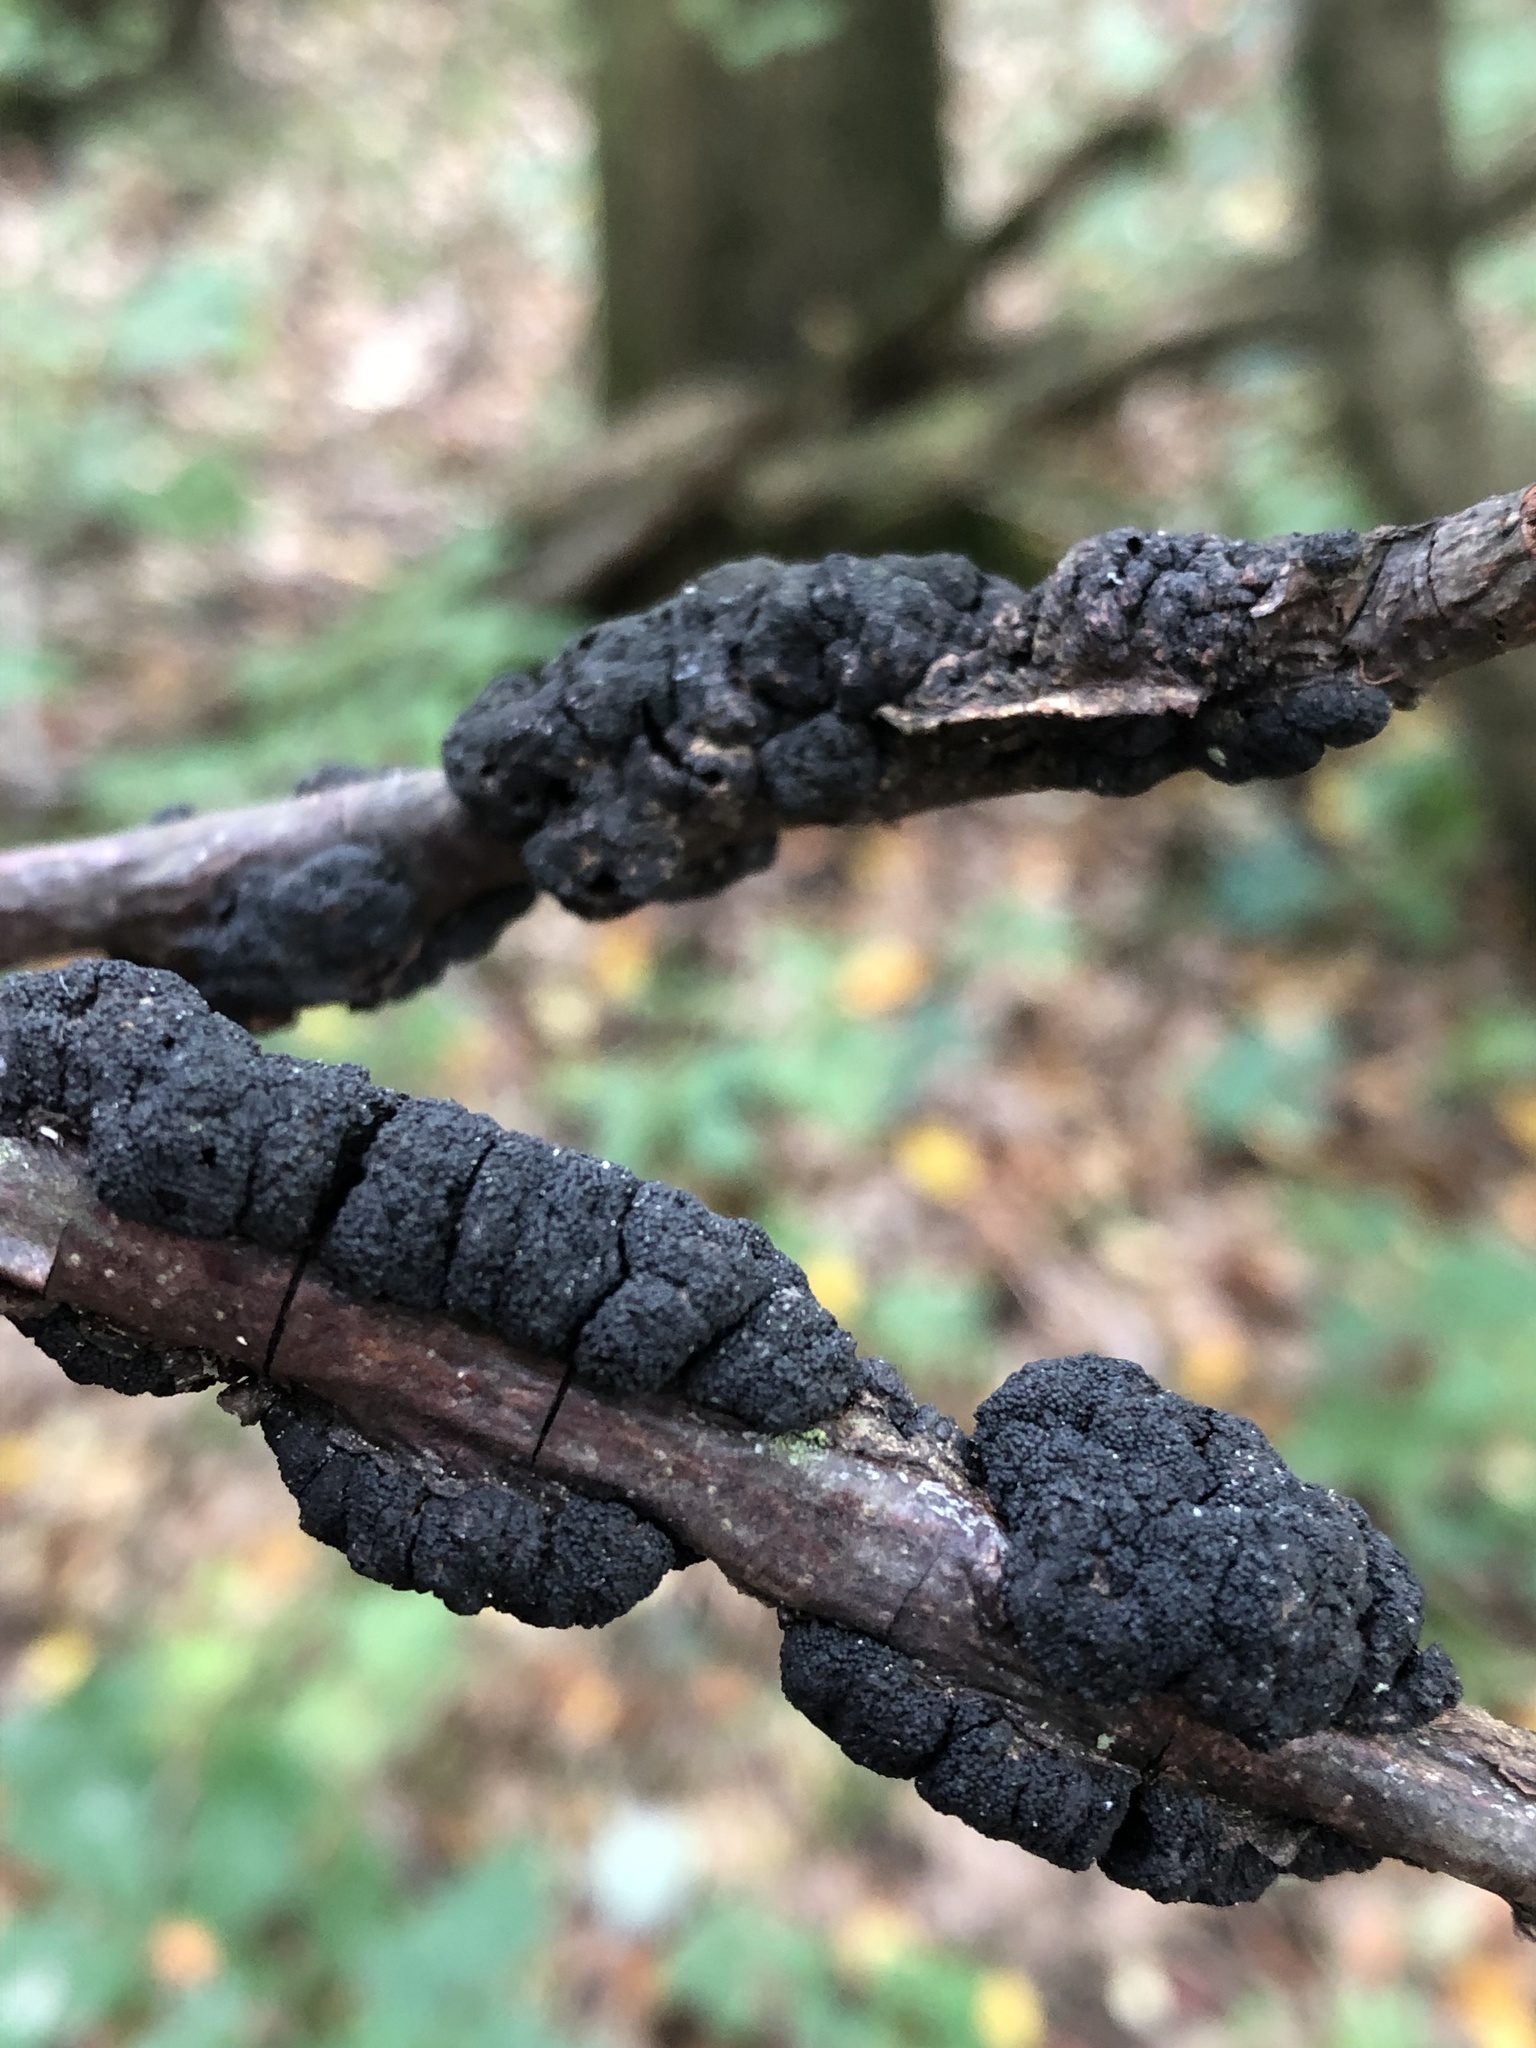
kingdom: Fungi
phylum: Ascomycota
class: Dothideomycetes
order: Venturiales
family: Venturiaceae
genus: Apiosporina
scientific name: Apiosporina morbosa
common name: Black knot
